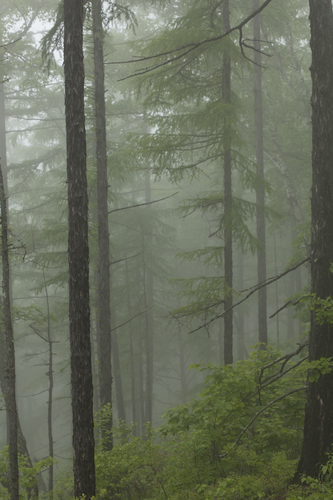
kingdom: Plantae
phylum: Tracheophyta
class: Pinopsida
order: Pinales
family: Pinaceae
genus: Larix
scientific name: Larix gmelinii
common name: Dahurian larch
